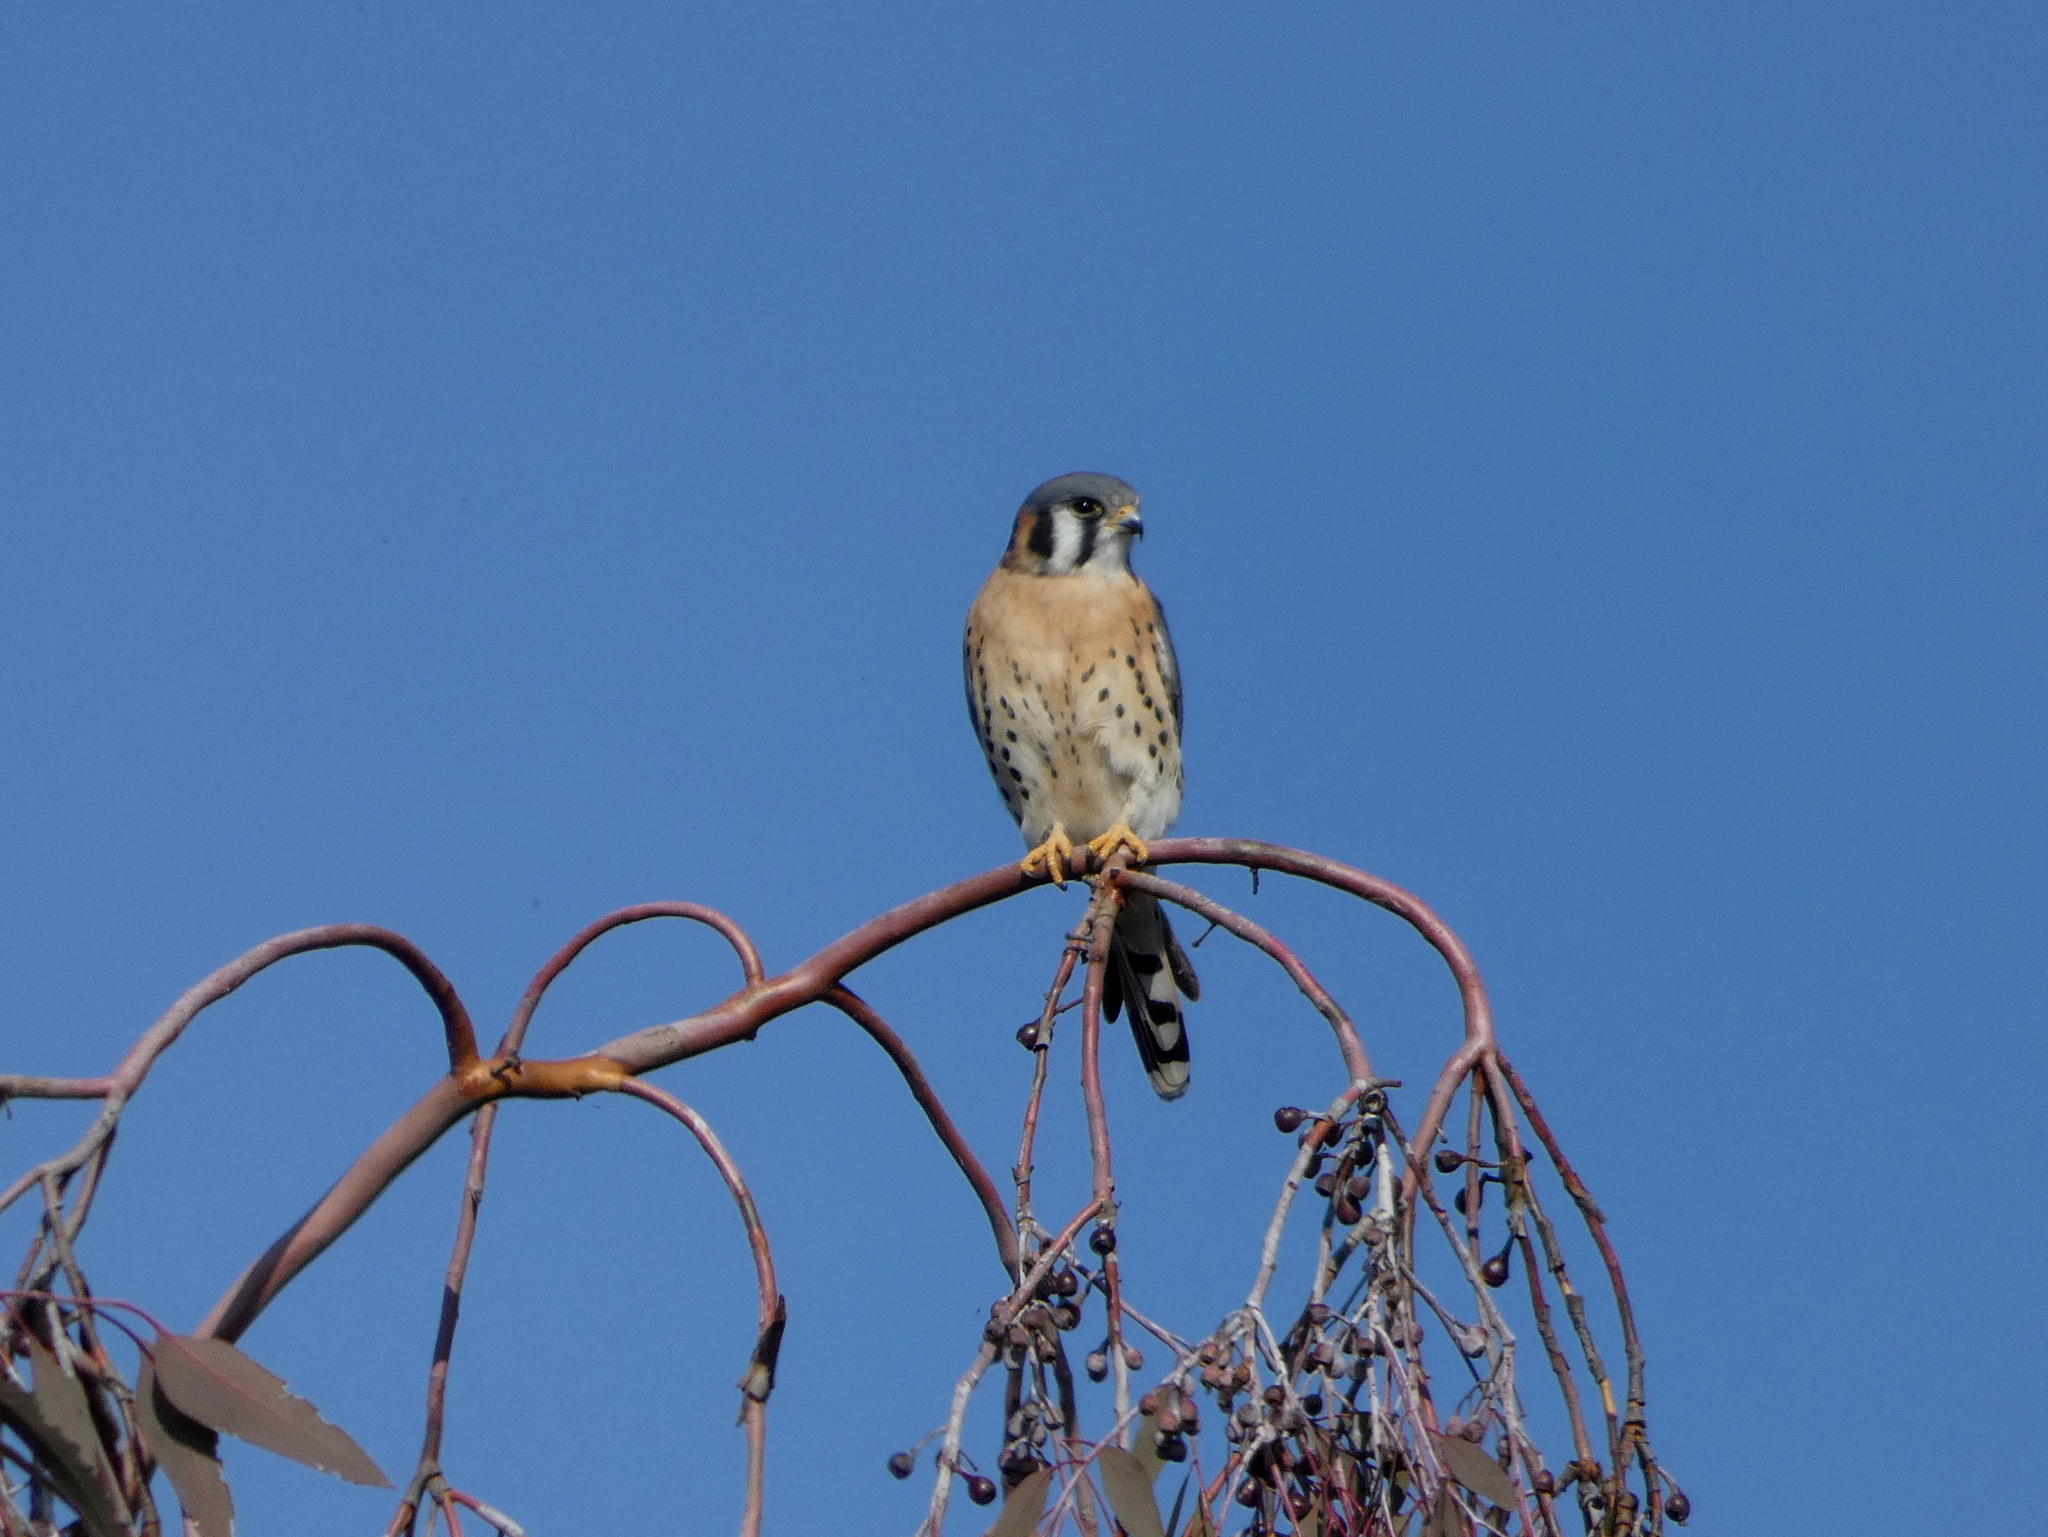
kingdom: Animalia
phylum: Chordata
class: Aves
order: Falconiformes
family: Falconidae
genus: Falco
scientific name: Falco sparverius
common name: American kestrel
